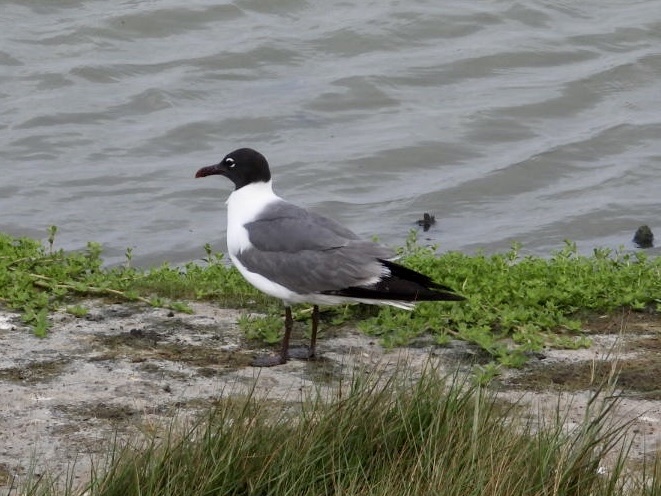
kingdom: Animalia
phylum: Chordata
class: Aves
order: Charadriiformes
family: Laridae
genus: Leucophaeus
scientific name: Leucophaeus atricilla
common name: Laughing gull
